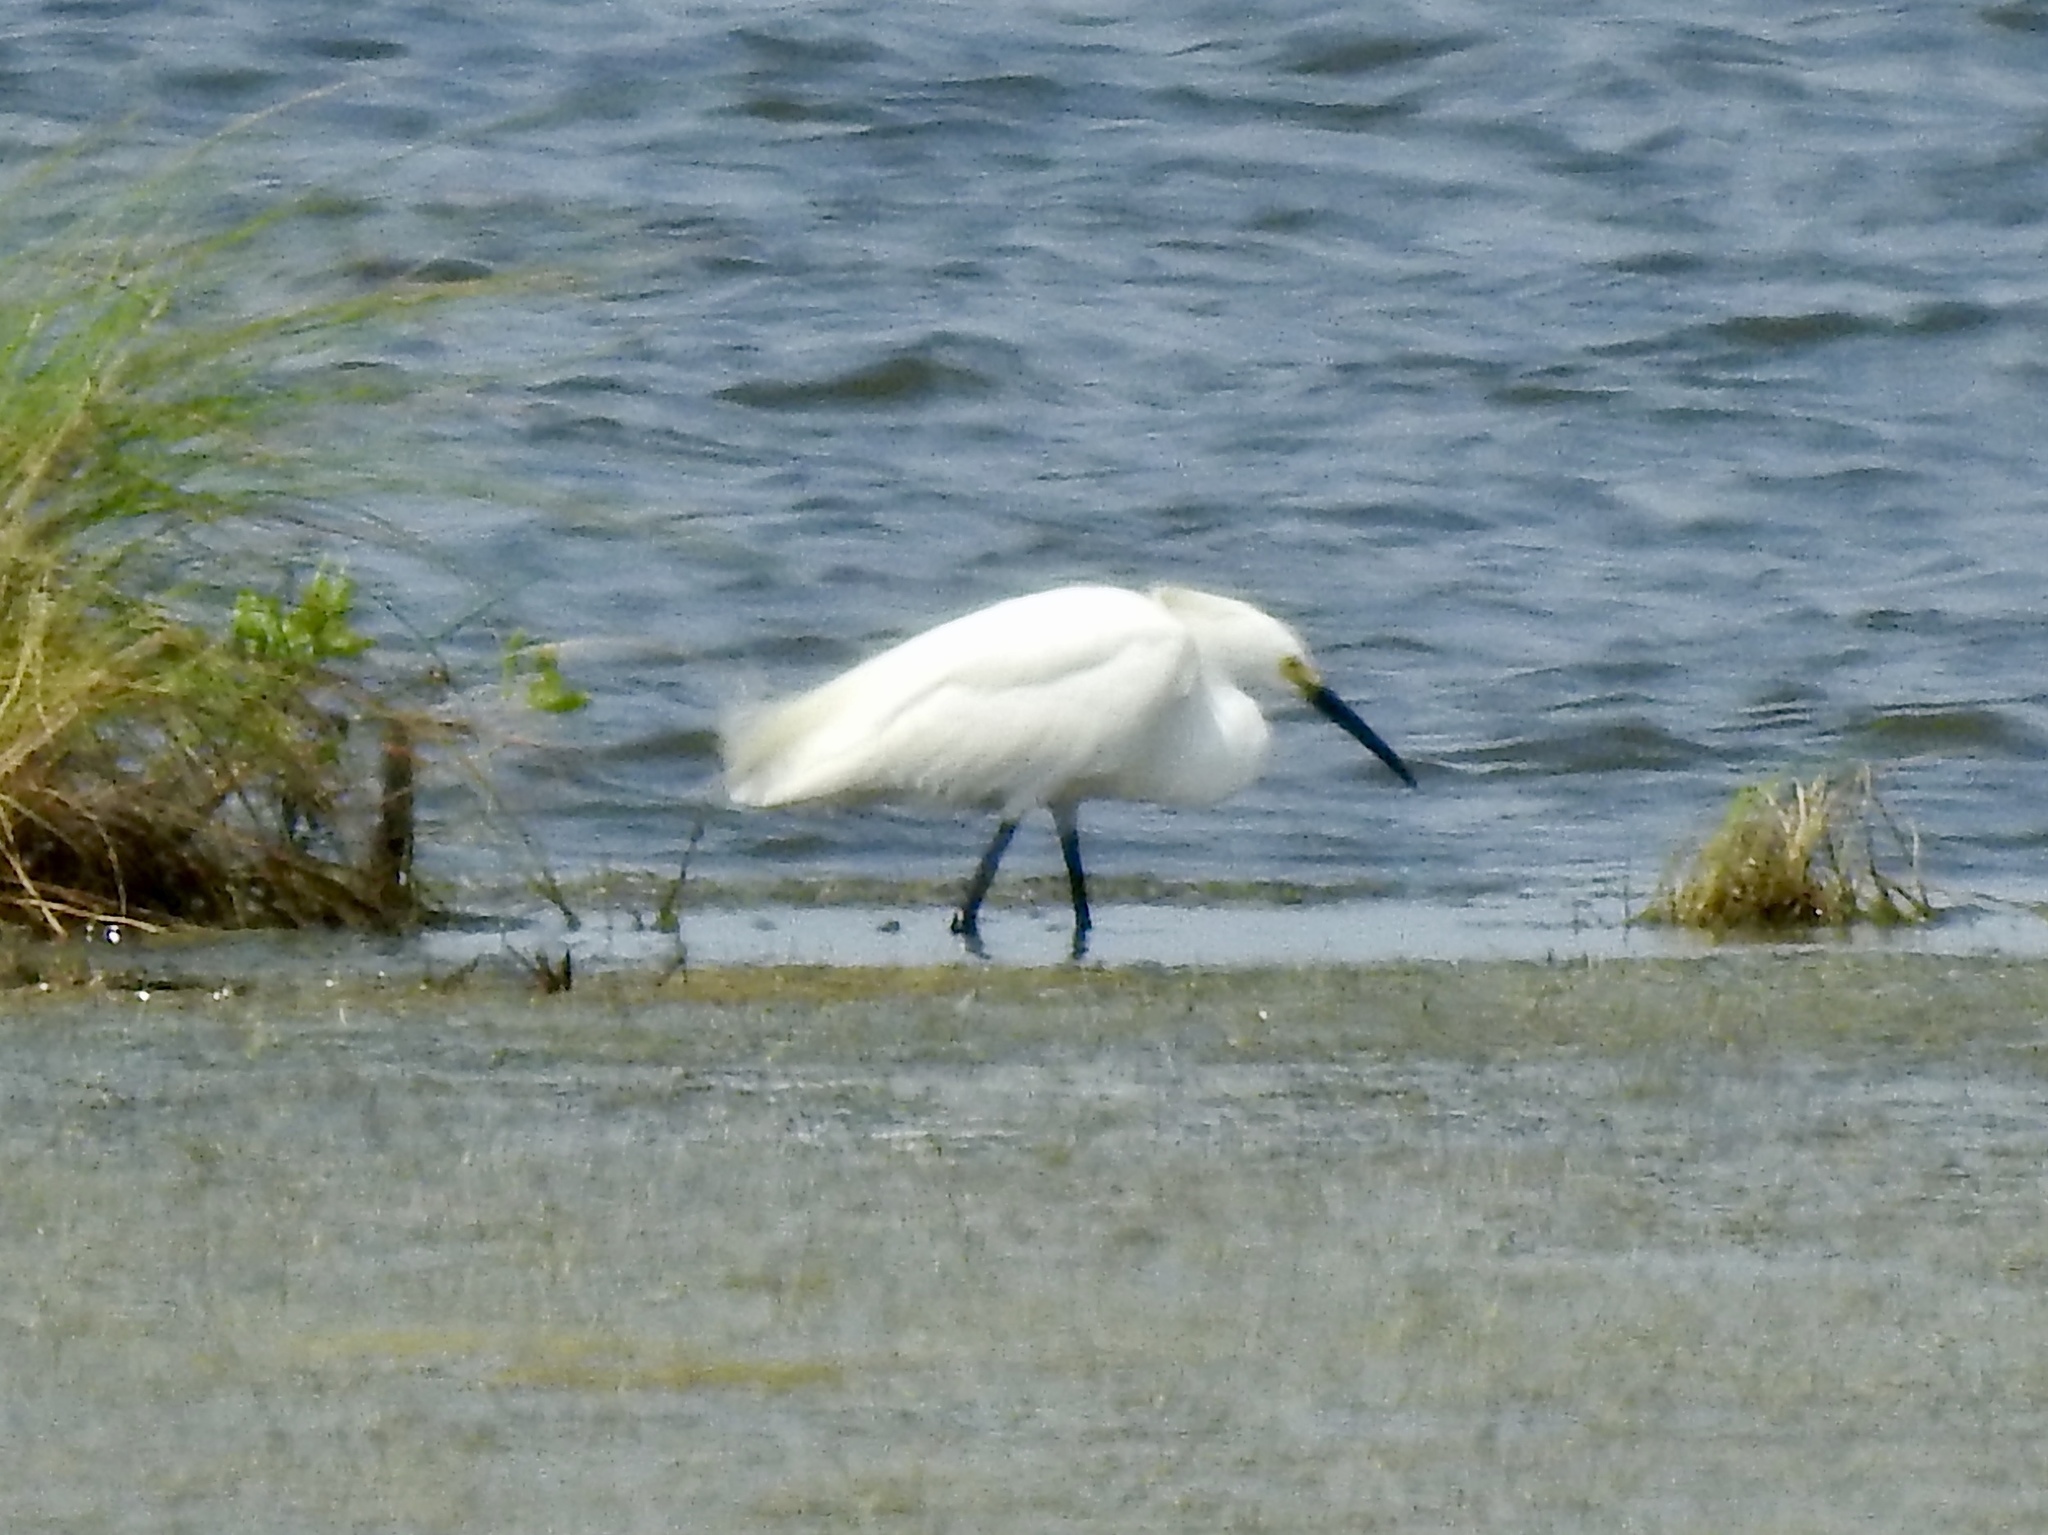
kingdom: Animalia
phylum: Chordata
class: Aves
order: Pelecaniformes
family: Ardeidae
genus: Egretta
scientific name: Egretta thula
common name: Snowy egret
